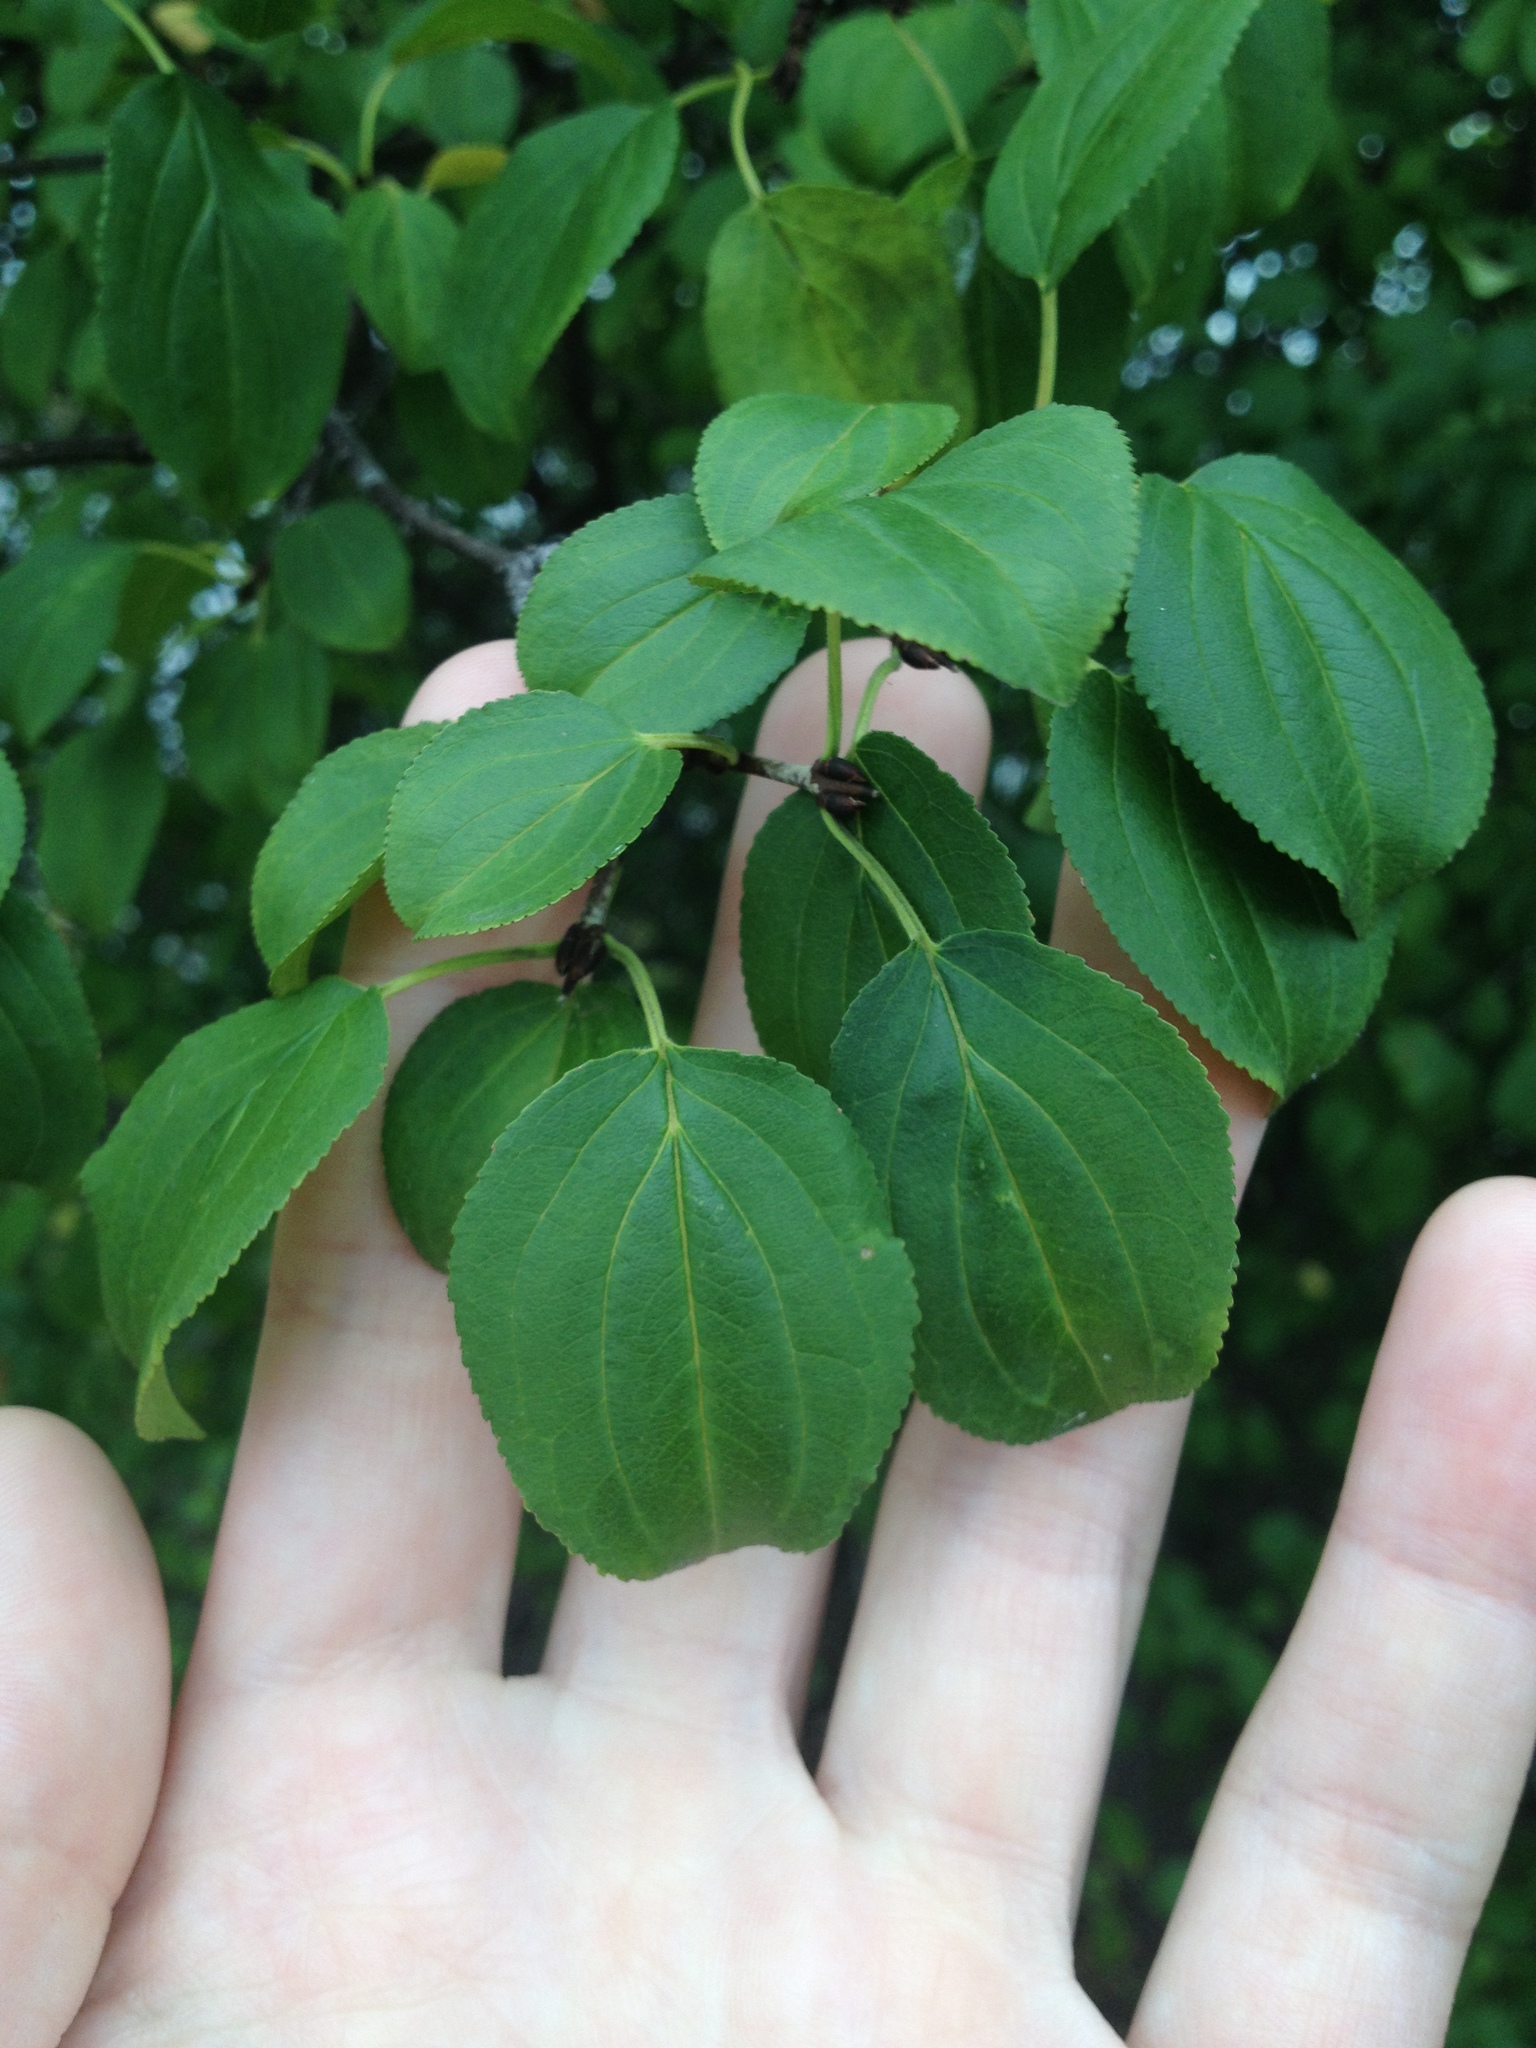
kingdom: Plantae
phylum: Tracheophyta
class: Magnoliopsida
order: Celastrales
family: Celastraceae
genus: Celastrus
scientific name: Celastrus orbiculatus
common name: Oriental bittersweet
